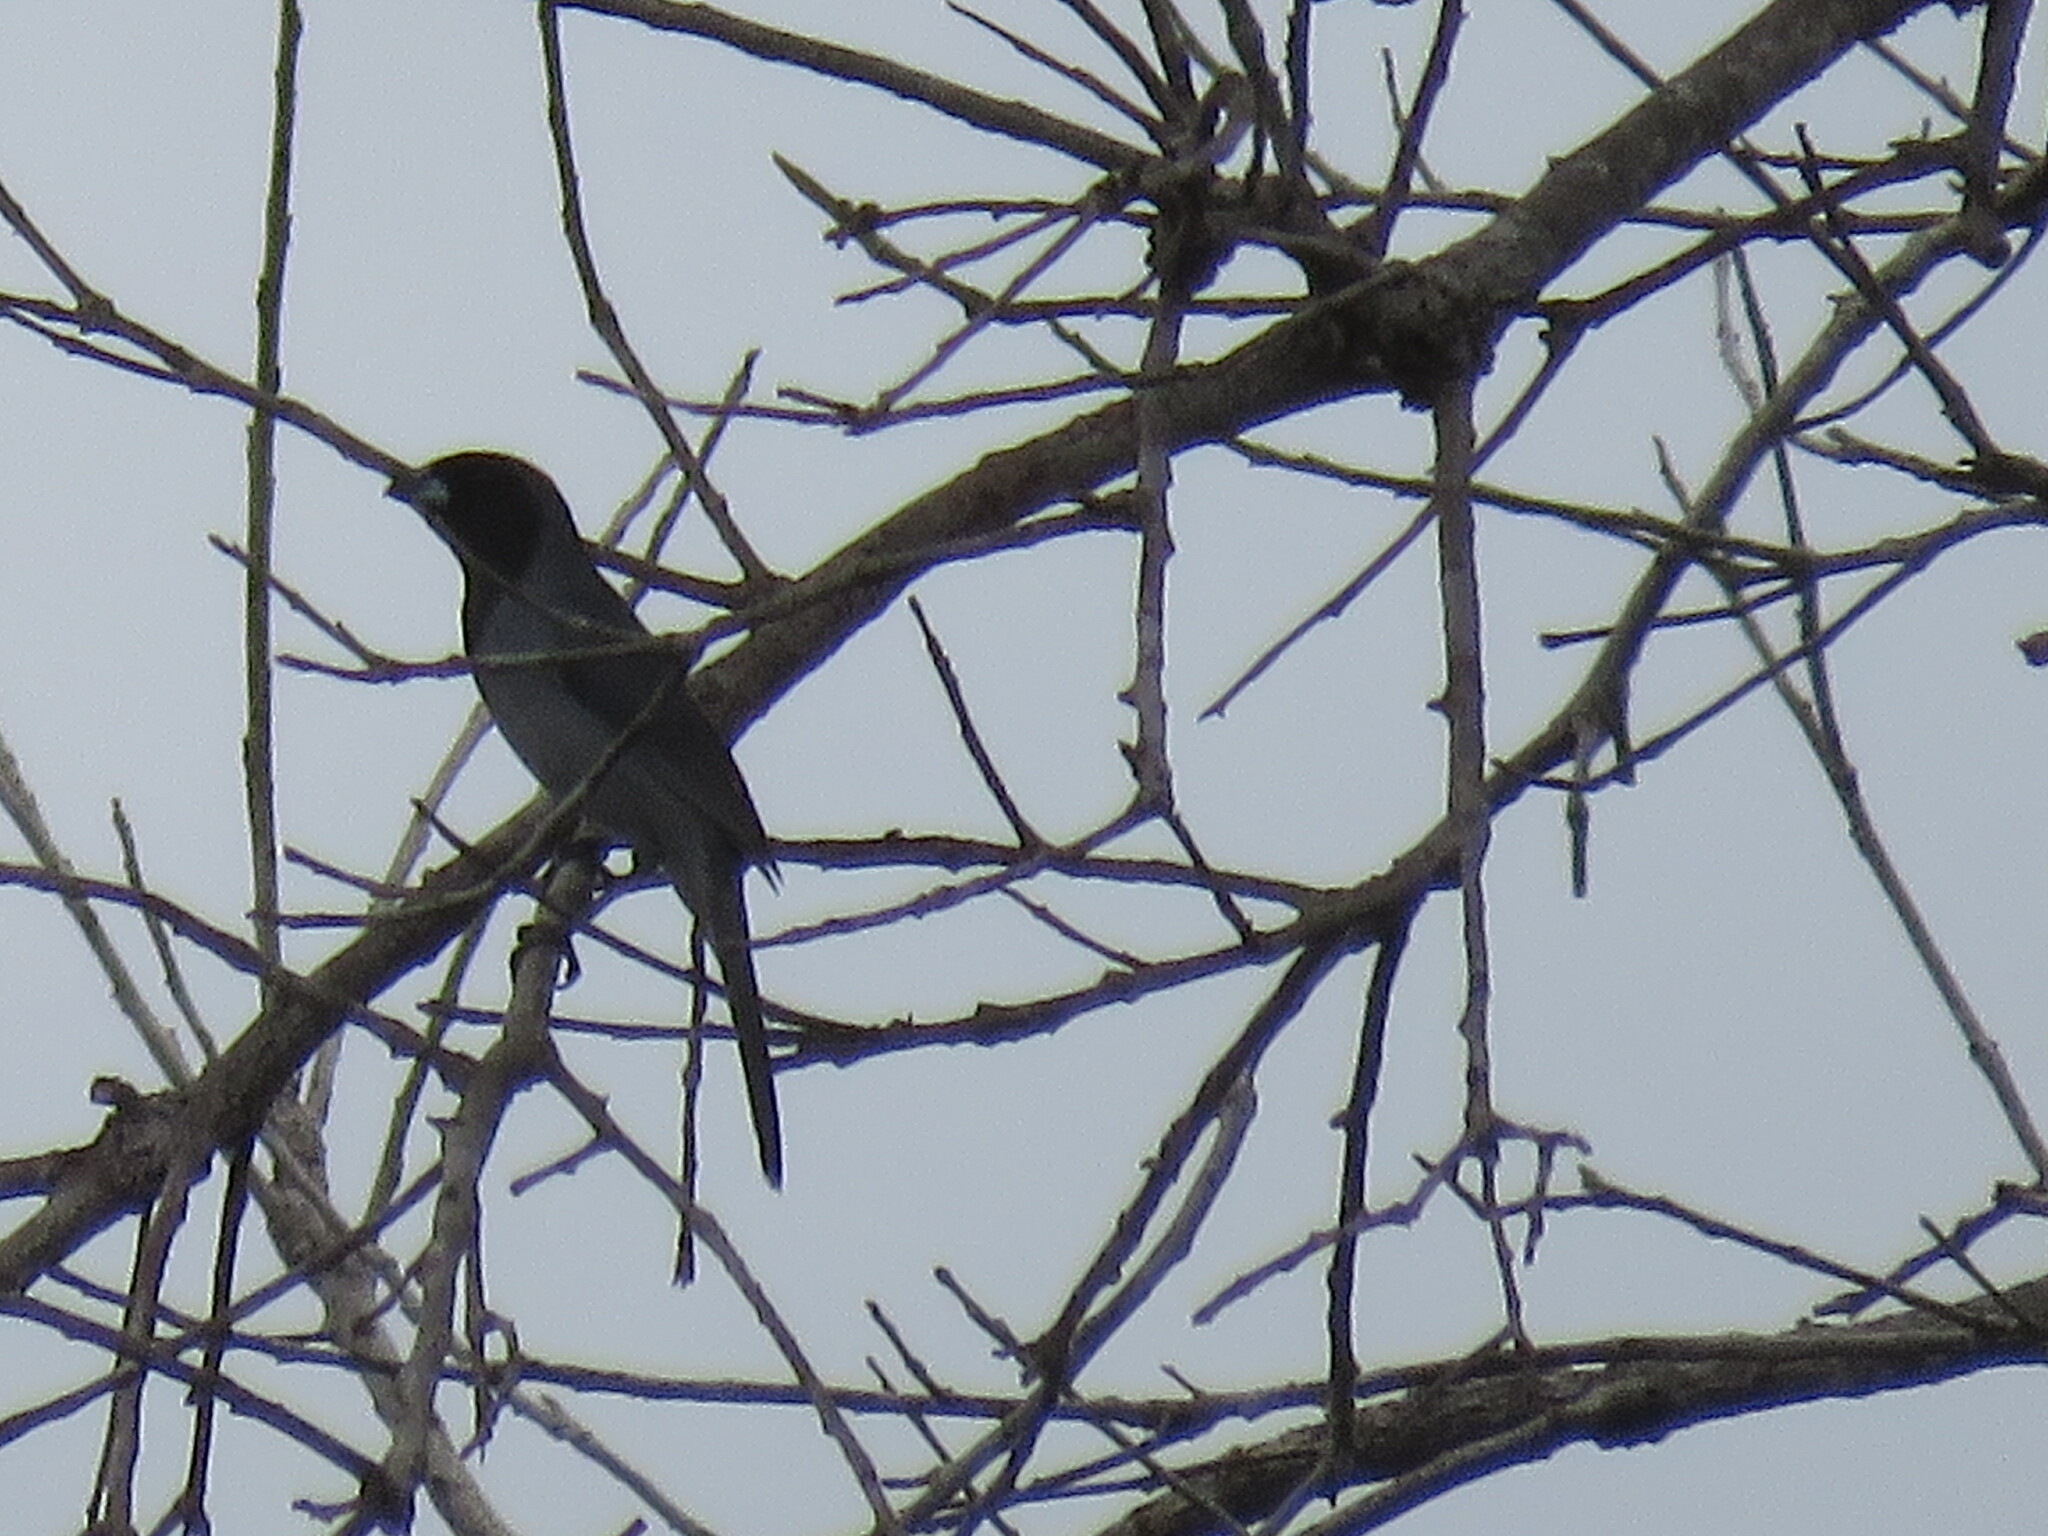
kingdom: Animalia
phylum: Chordata
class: Aves
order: Passeriformes
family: Thraupidae
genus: Schistochlamys
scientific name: Schistochlamys melanopis
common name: Black-faced tanager
